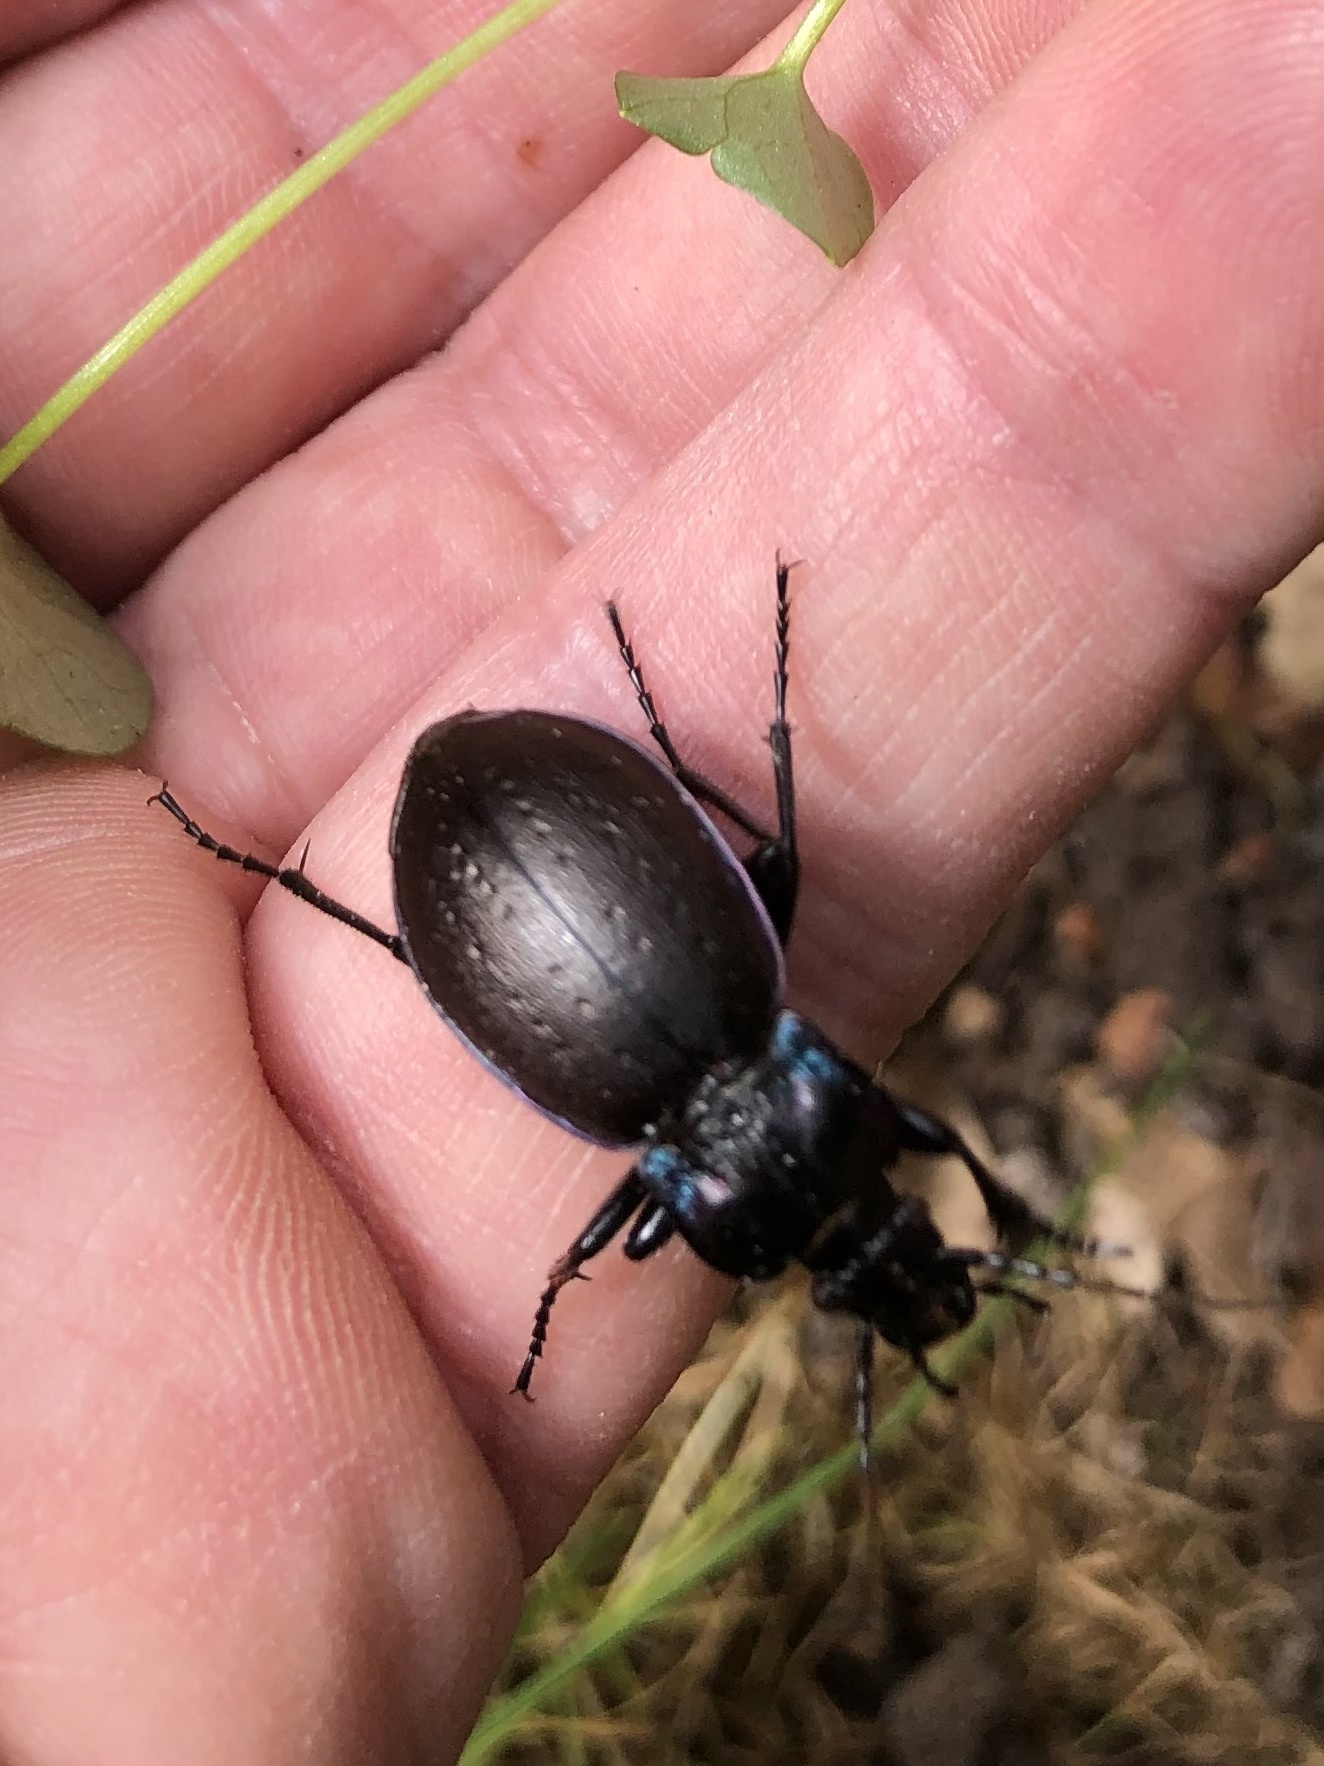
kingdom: Animalia
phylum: Arthropoda
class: Insecta
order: Coleoptera
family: Carabidae
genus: Carabus
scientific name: Carabus nemoralis
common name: European ground beetle
